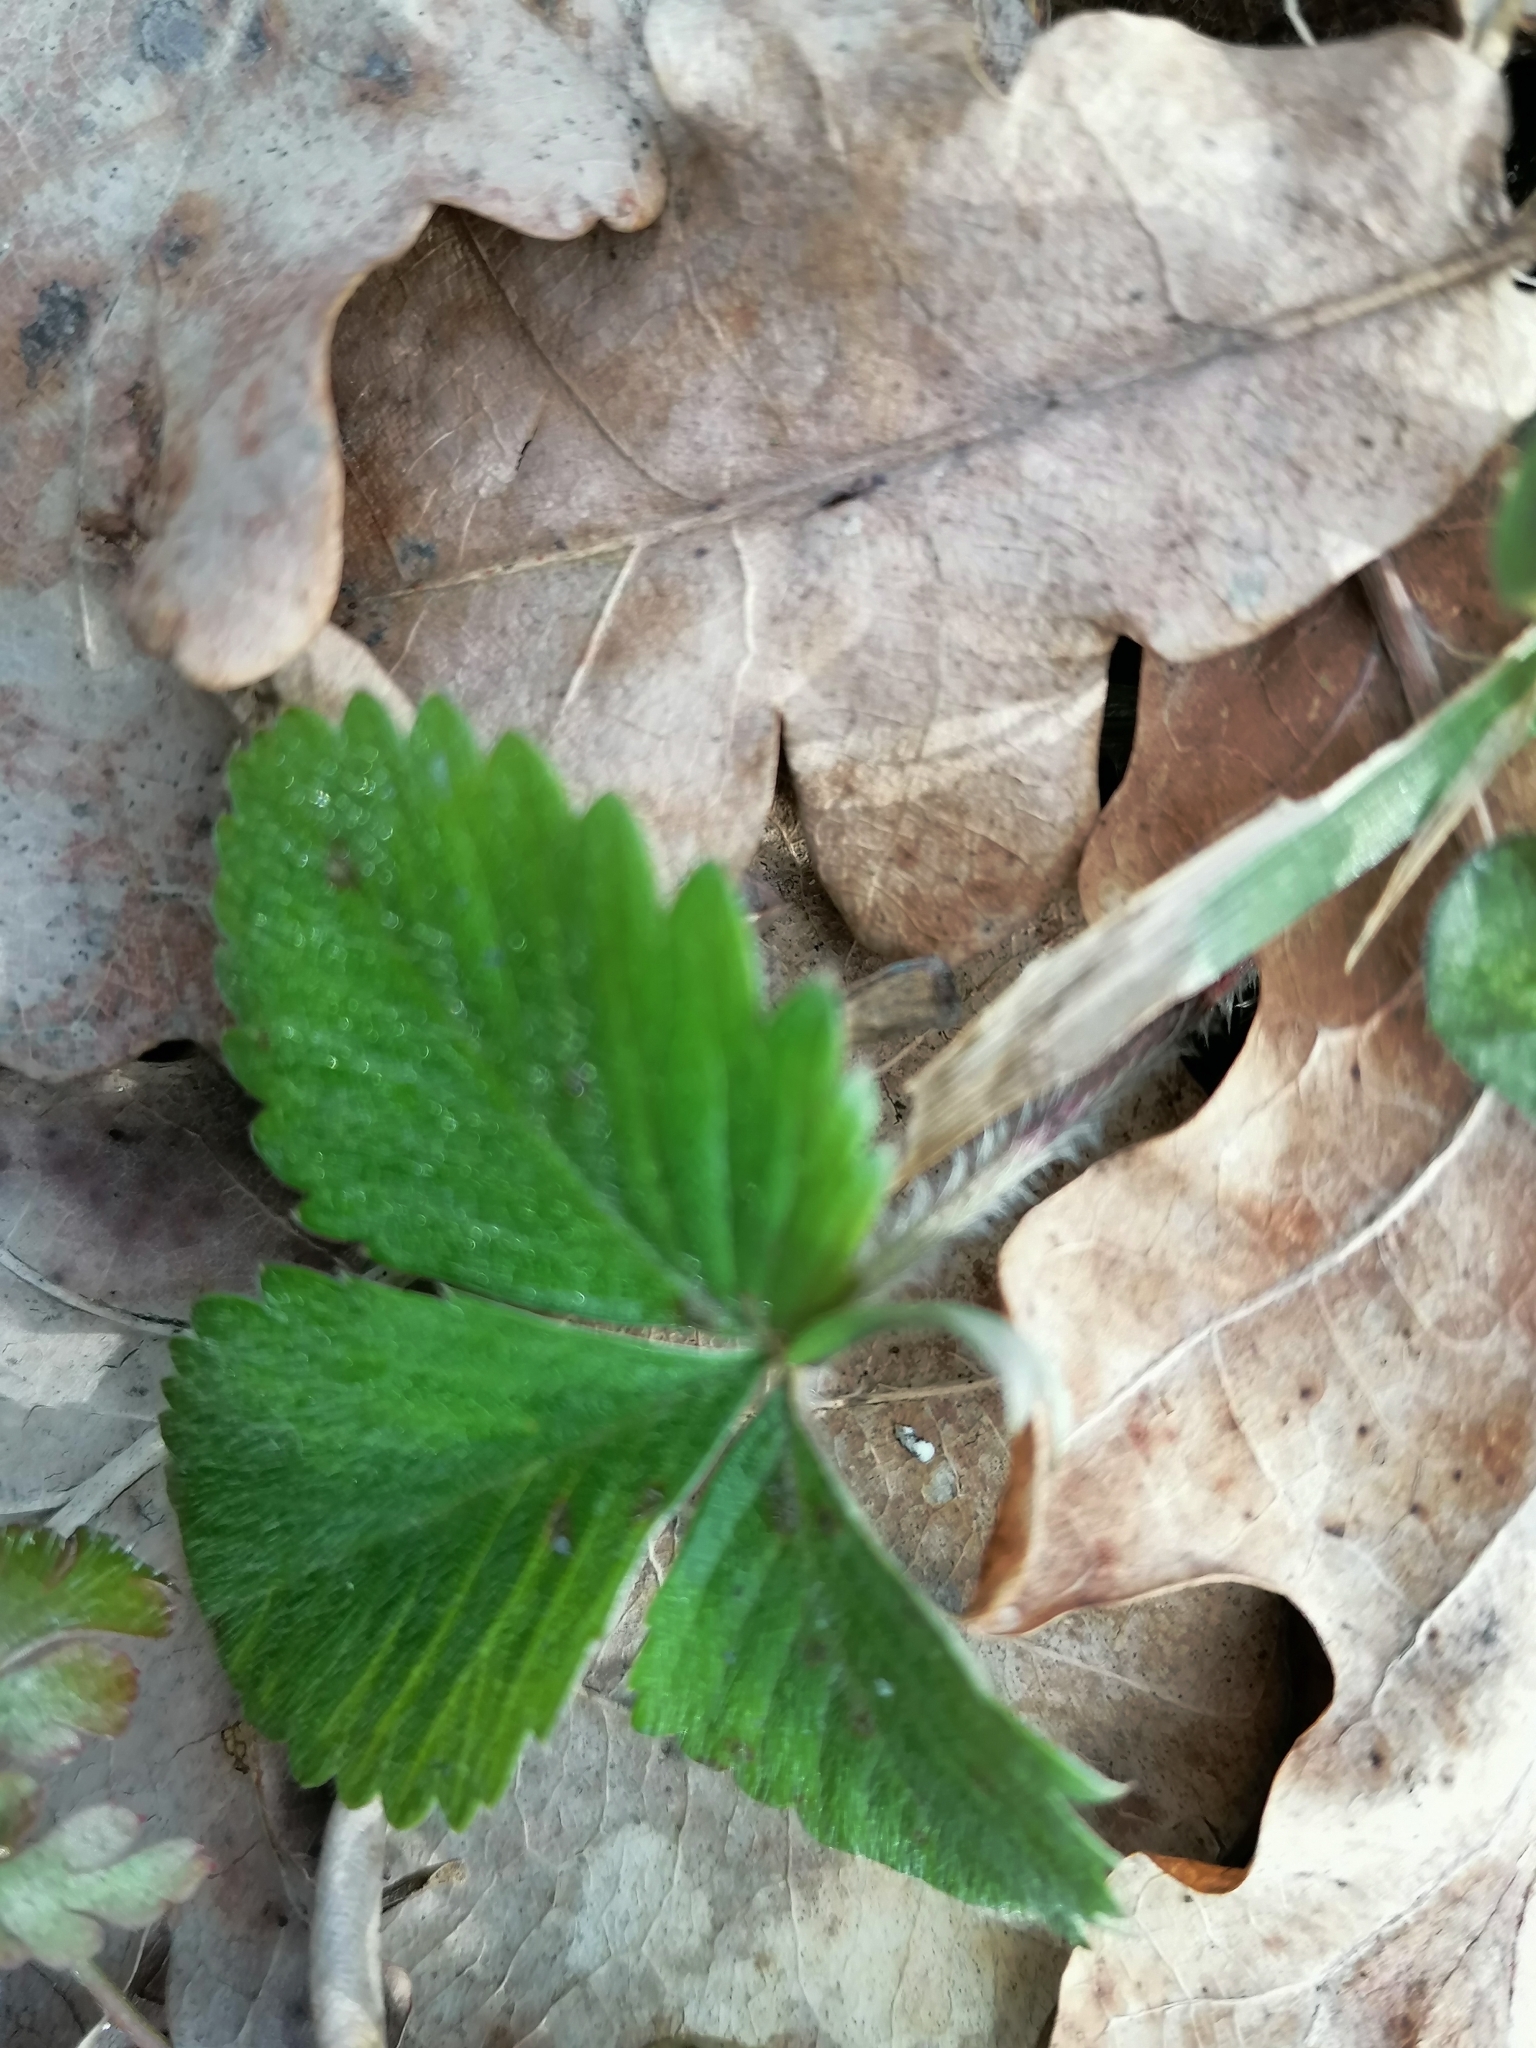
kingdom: Plantae
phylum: Tracheophyta
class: Magnoliopsida
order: Rosales
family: Rosaceae
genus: Fragaria
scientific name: Fragaria vesca
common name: Wild strawberry
